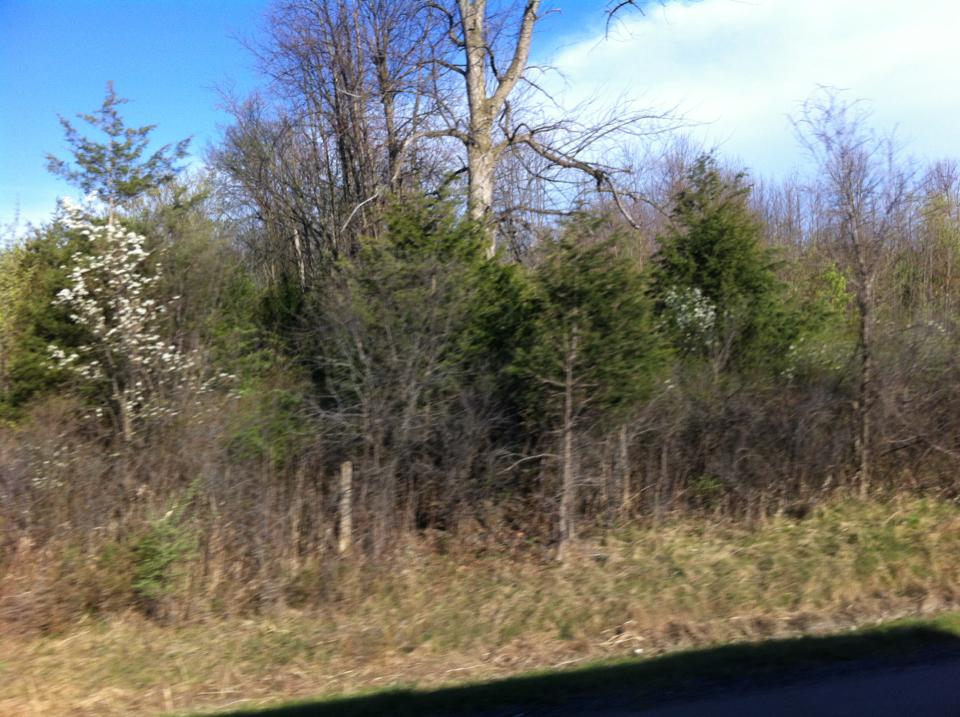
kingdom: Plantae
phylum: Tracheophyta
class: Pinopsida
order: Pinales
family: Cupressaceae
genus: Juniperus
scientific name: Juniperus virginiana
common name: Red juniper
